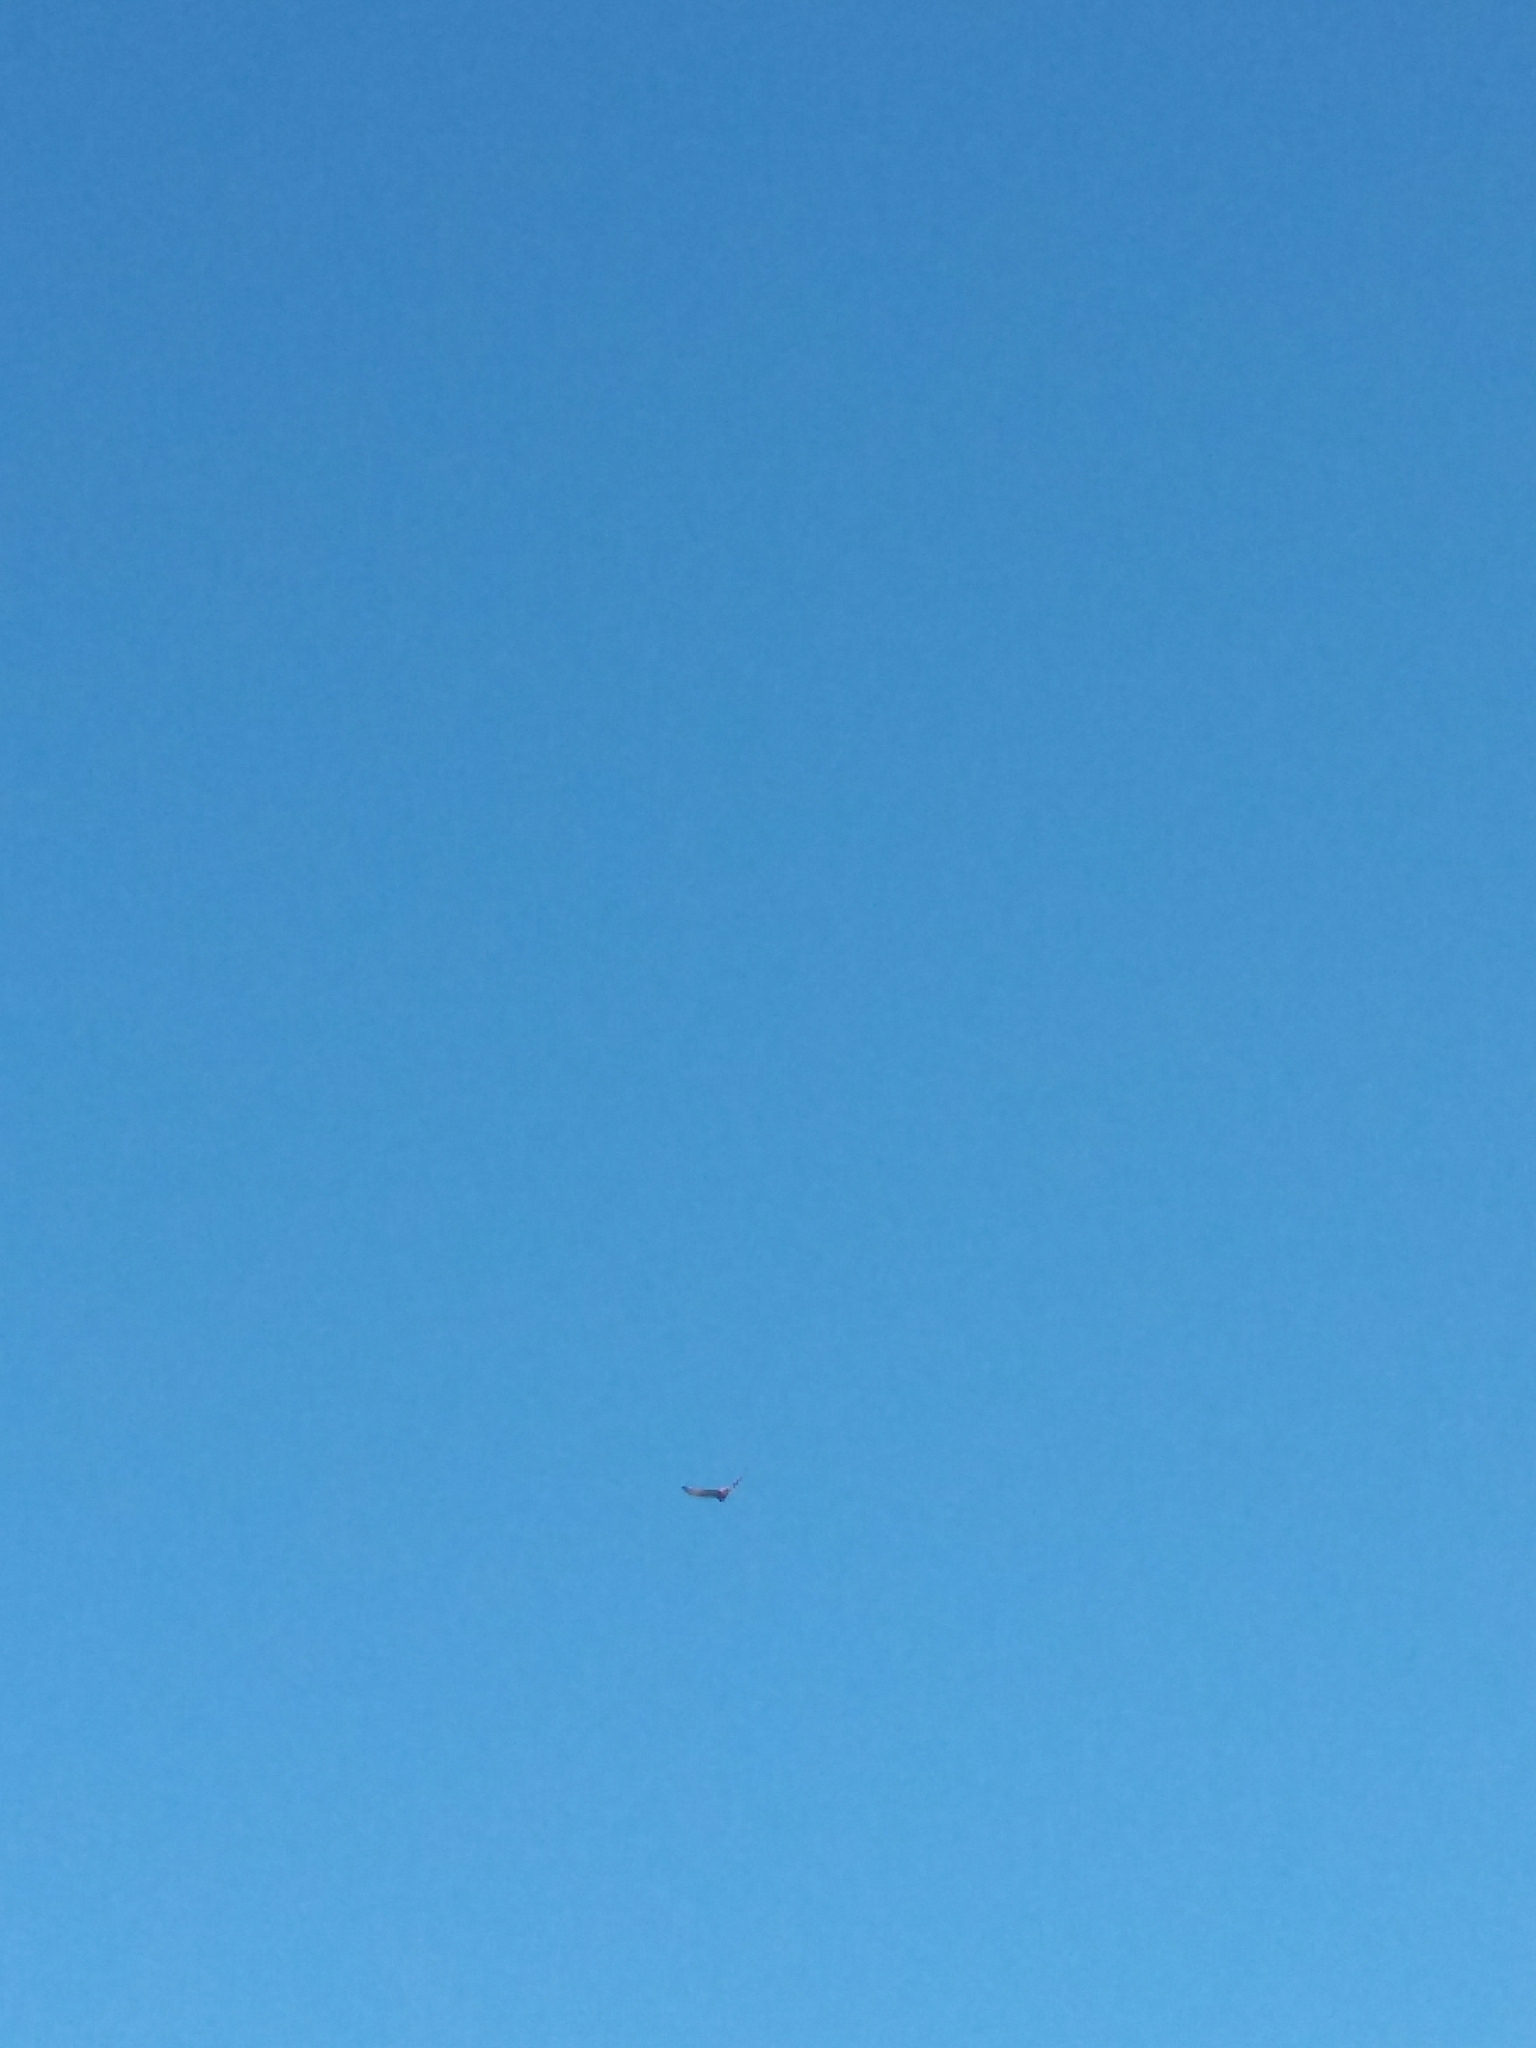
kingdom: Animalia
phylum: Chordata
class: Aves
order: Accipitriformes
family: Accipitridae
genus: Circus
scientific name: Circus approximans
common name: Swamp harrier
